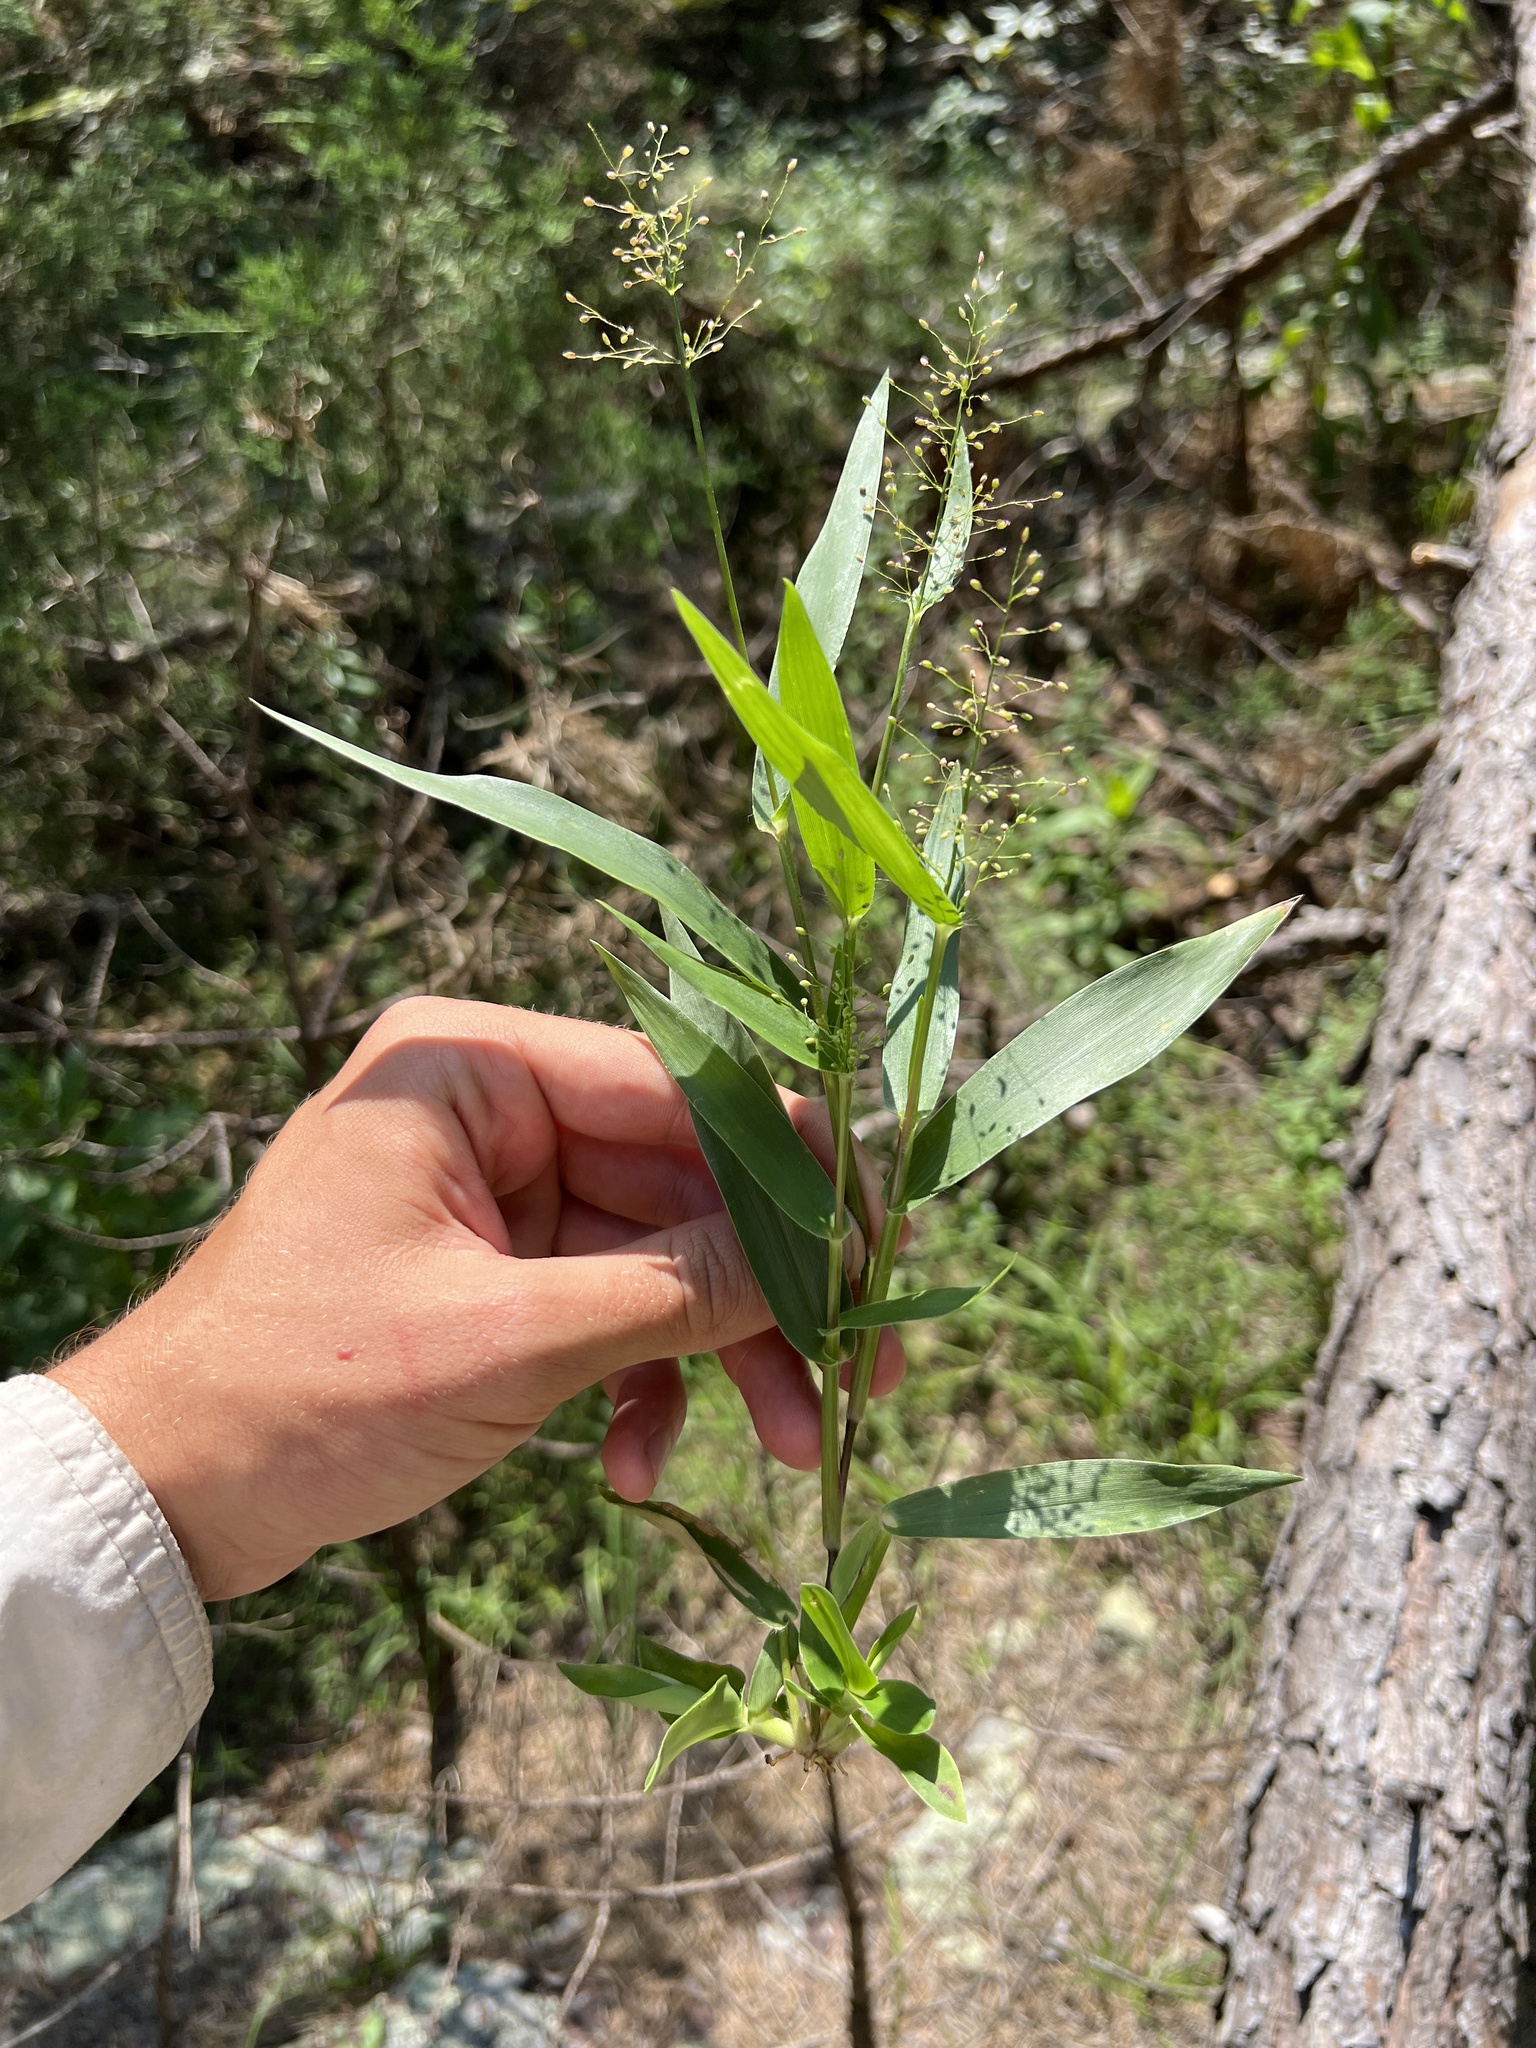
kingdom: Plantae
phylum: Tracheophyta
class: Liliopsida
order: Poales
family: Poaceae
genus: Dichanthelium
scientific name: Dichanthelium sphaerocarpon
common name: Round-fruited panicgrass
